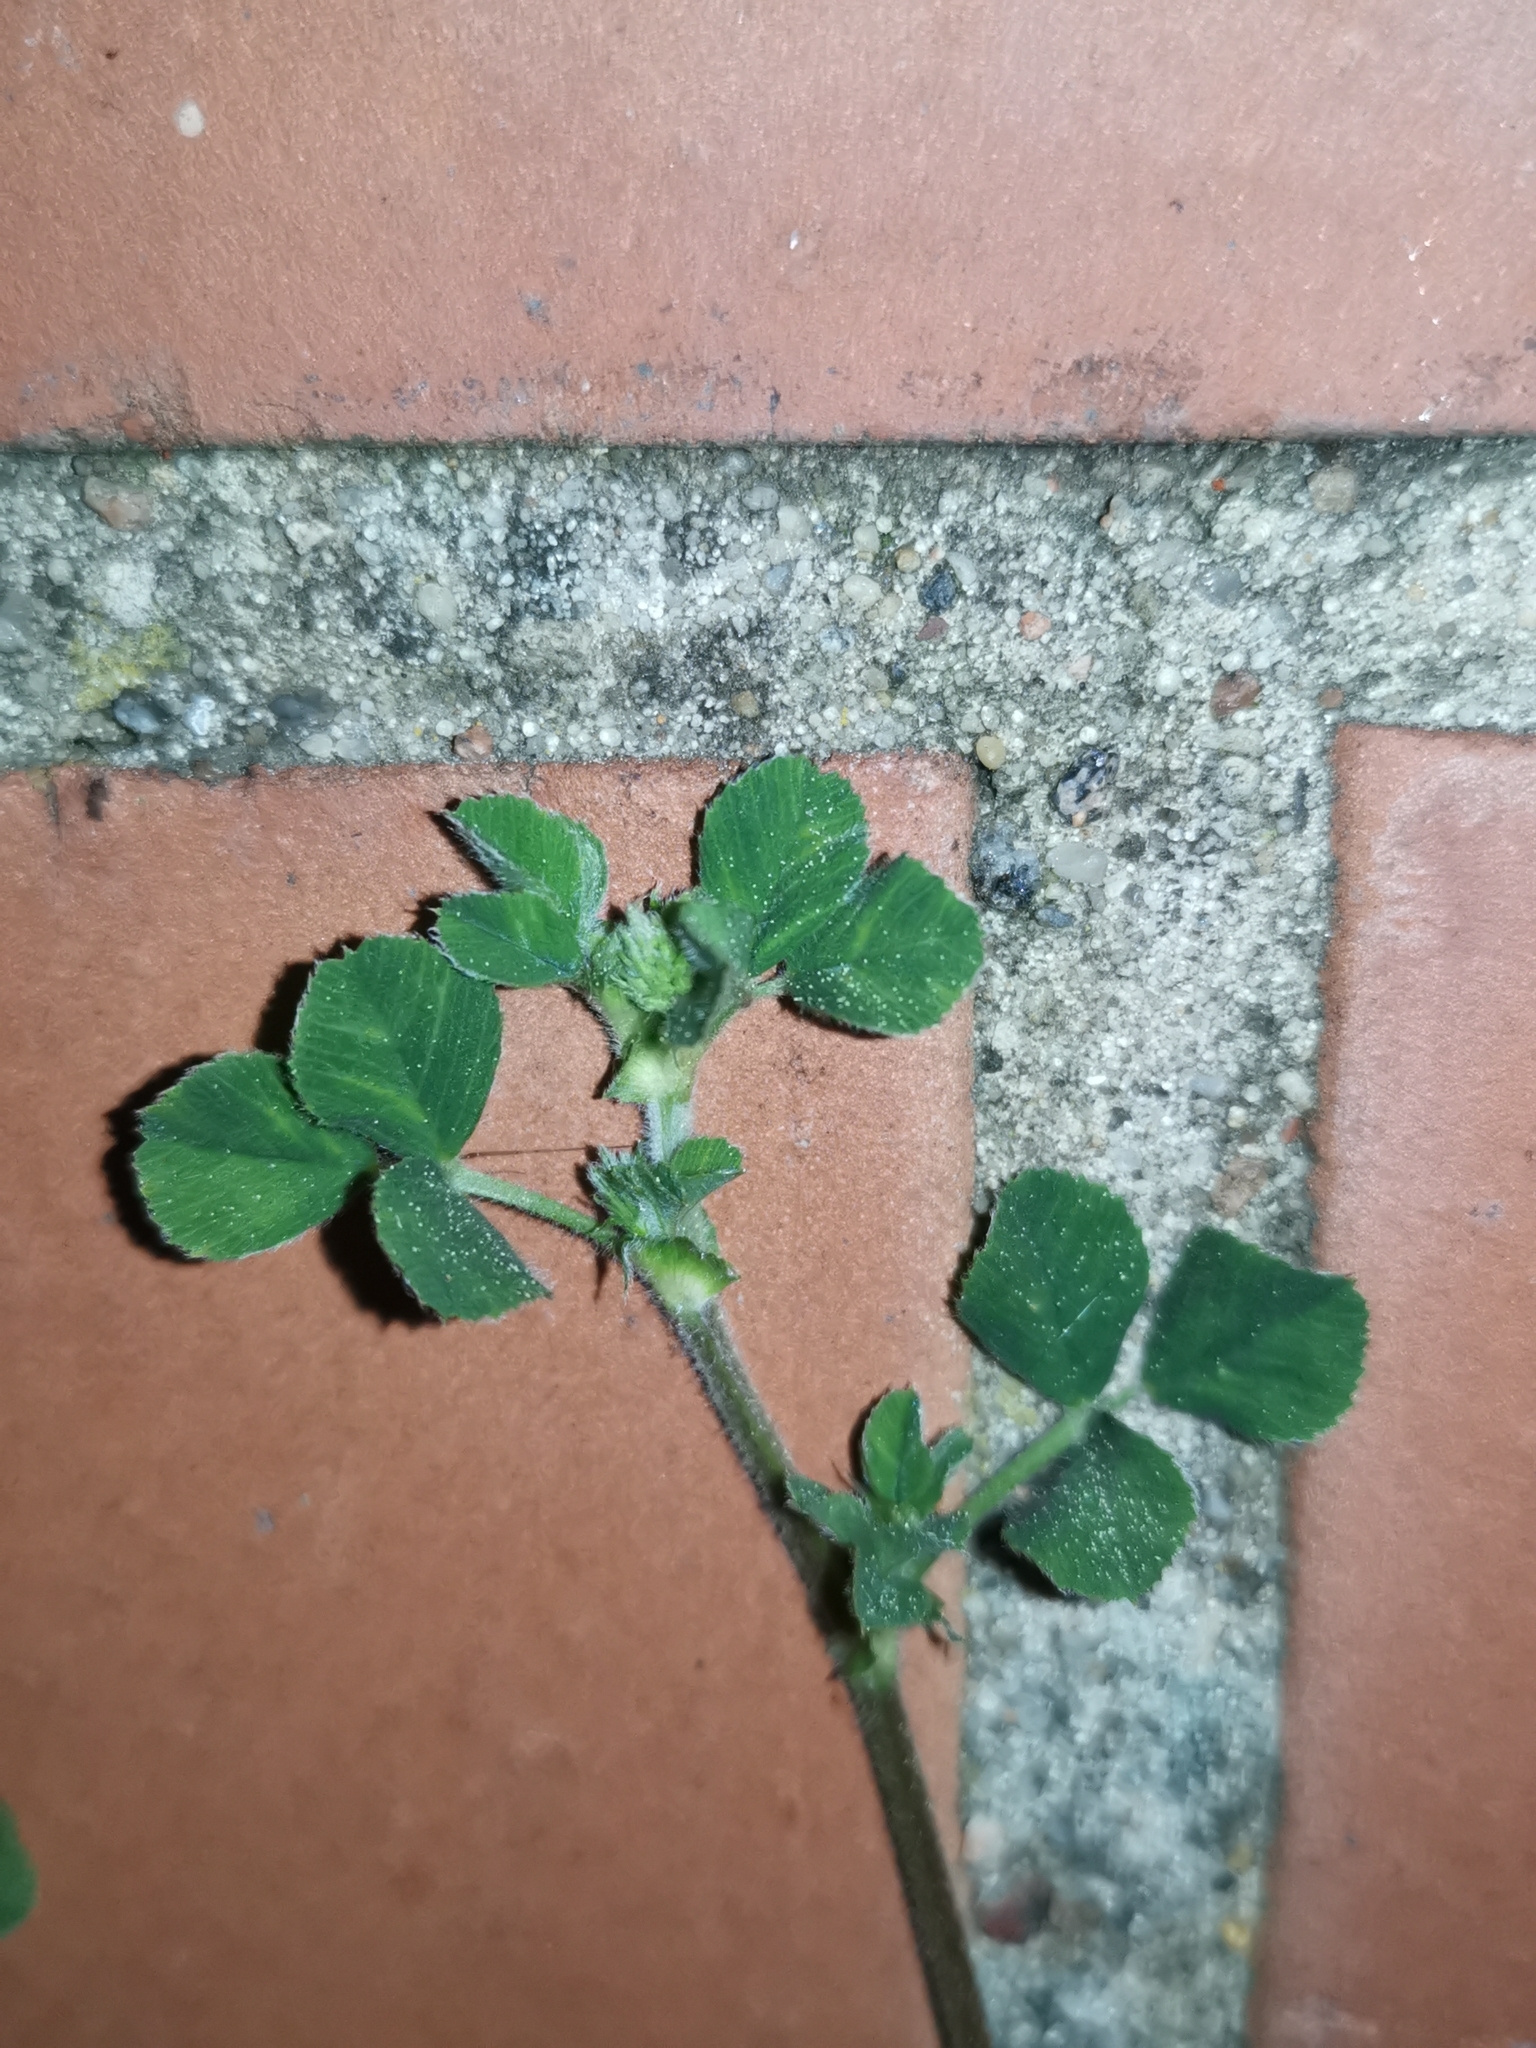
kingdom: Plantae
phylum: Tracheophyta
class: Magnoliopsida
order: Fabales
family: Fabaceae
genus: Medicago
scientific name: Medicago lupulina
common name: Black medick
